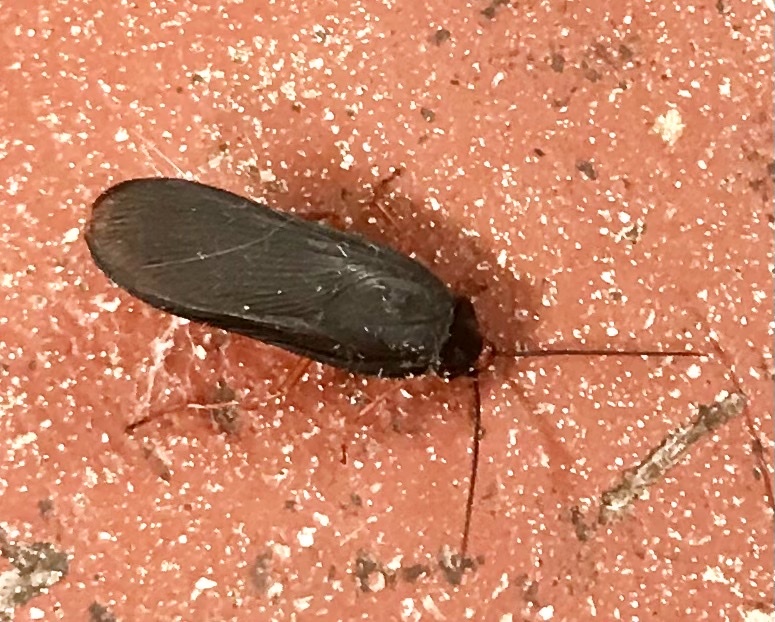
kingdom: Animalia
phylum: Arthropoda
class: Insecta
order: Blattodea
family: Blattidae
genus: Deropeltis
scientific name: Deropeltis erythrocephala
